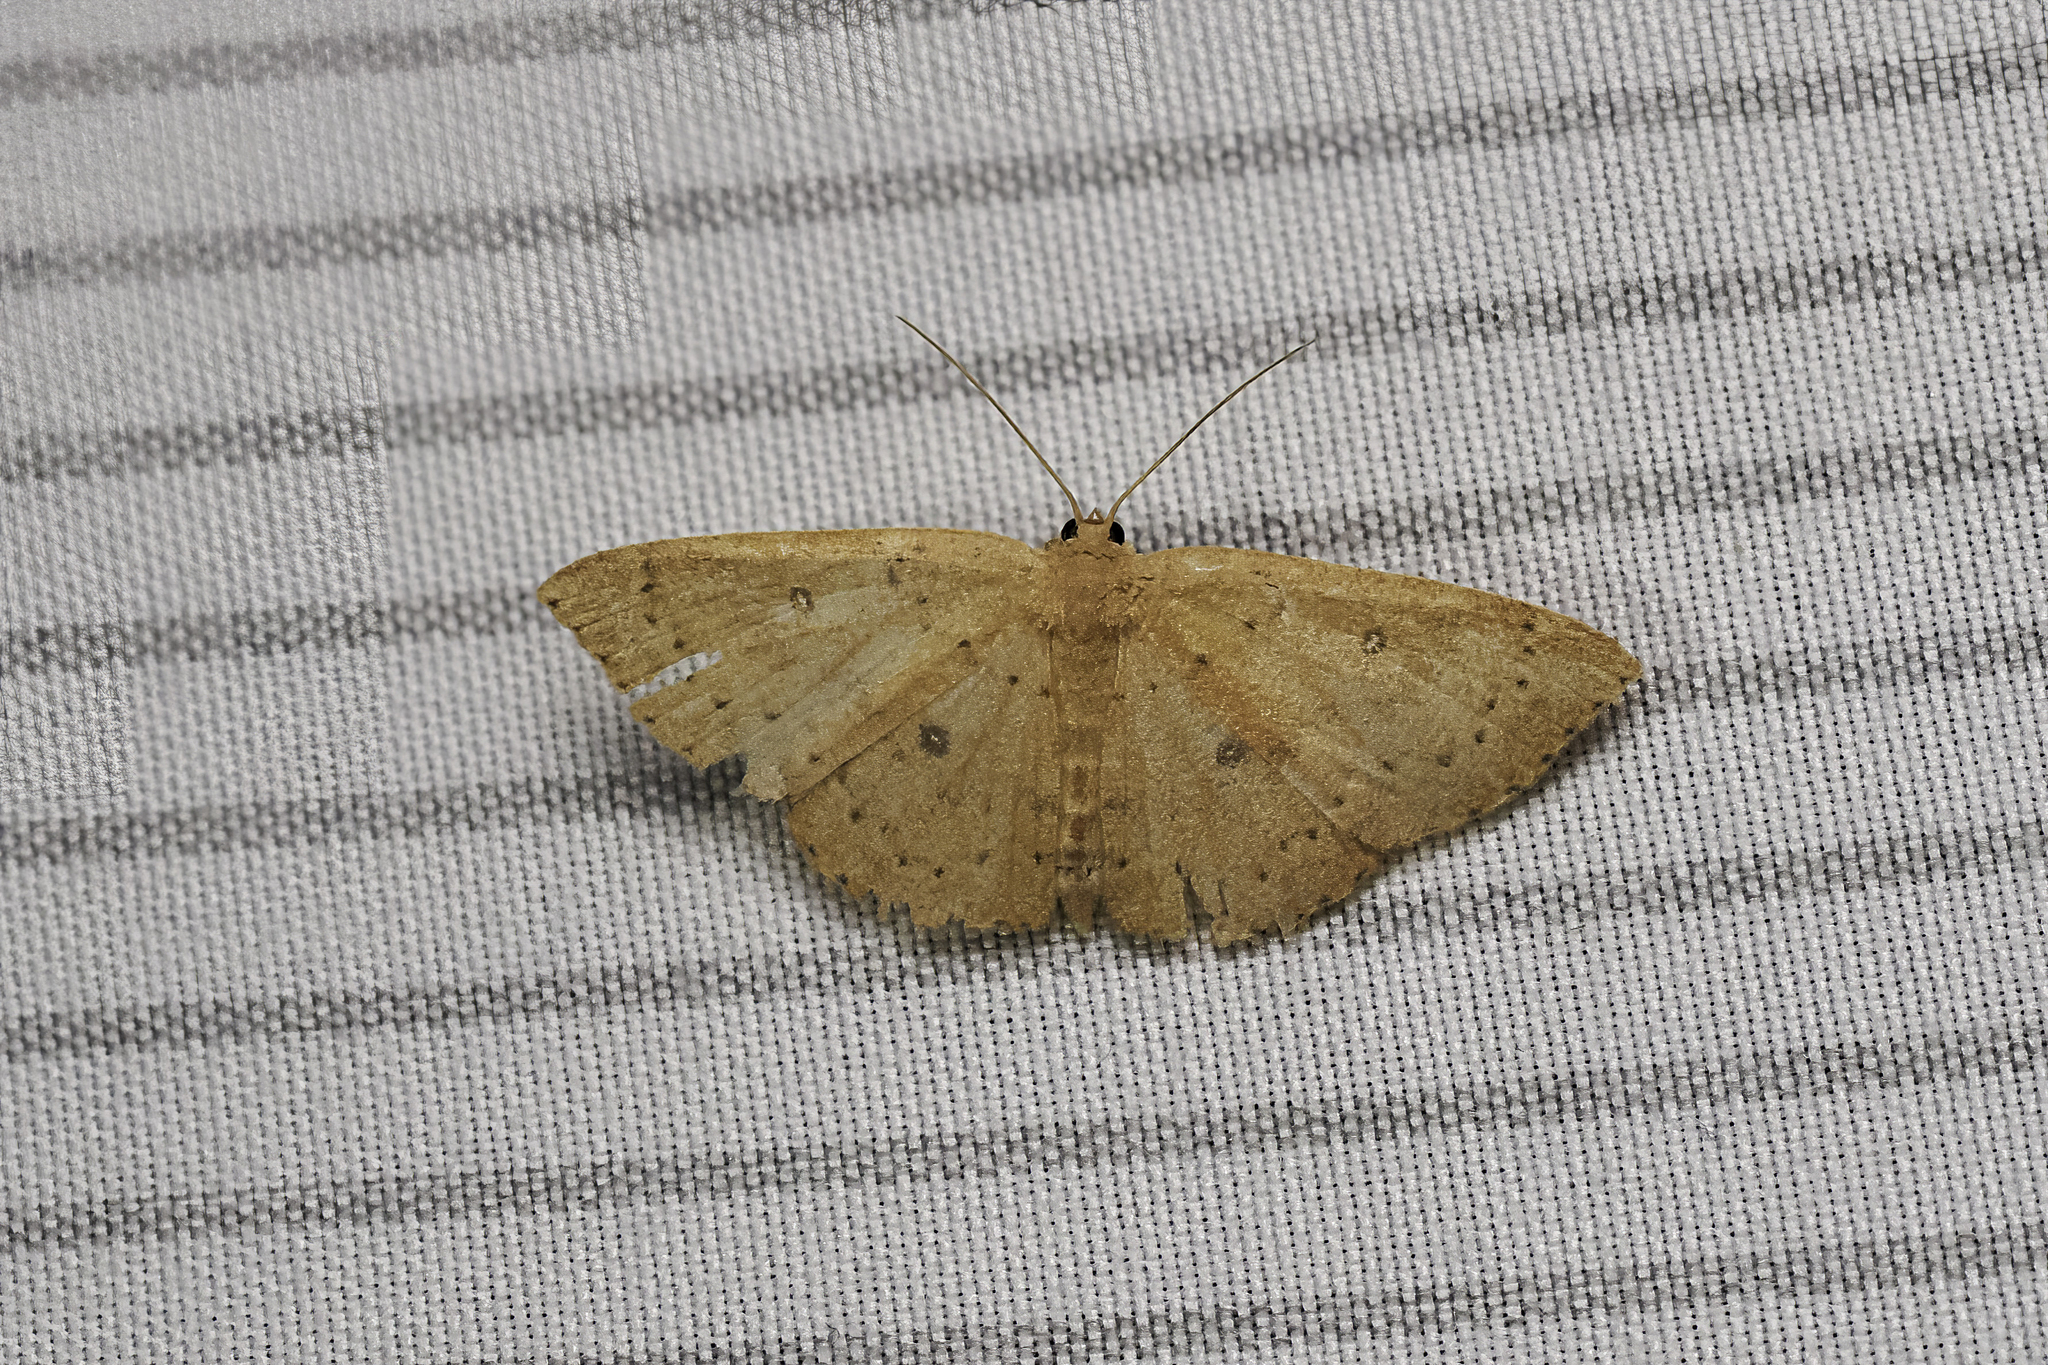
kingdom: Animalia
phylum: Arthropoda
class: Insecta
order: Lepidoptera
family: Geometridae
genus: Cyclophora
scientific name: Cyclophora packardi
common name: Packard's wave
